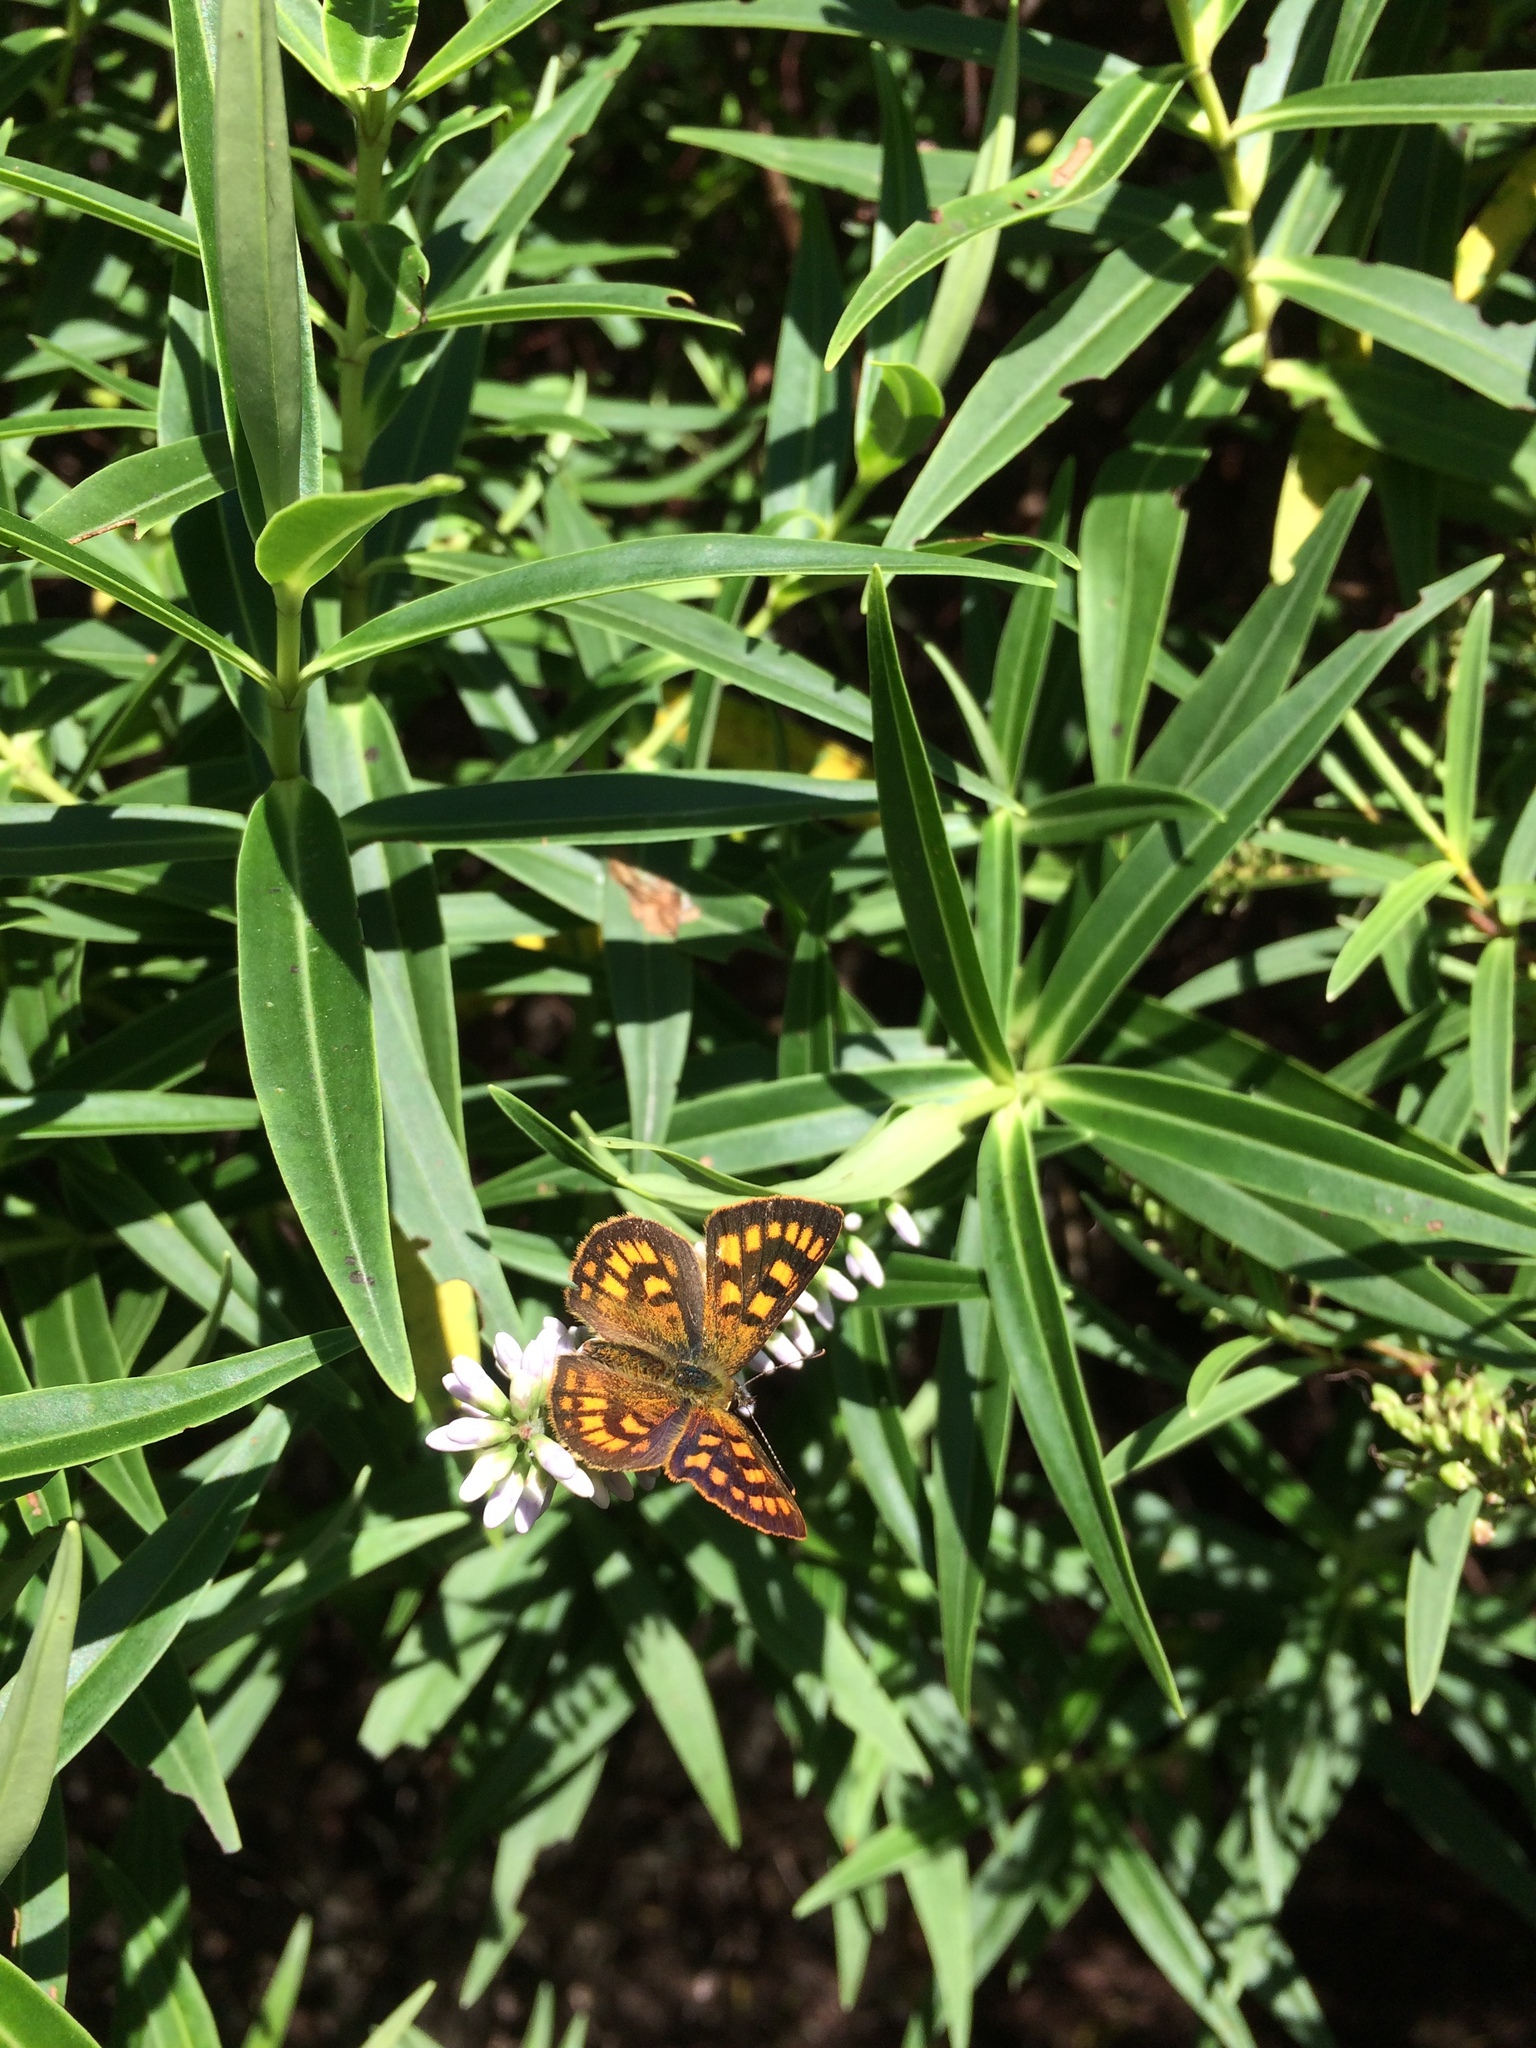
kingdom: Animalia
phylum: Arthropoda
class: Insecta
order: Lepidoptera
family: Lycaenidae
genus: Lycaena
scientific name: Lycaena
